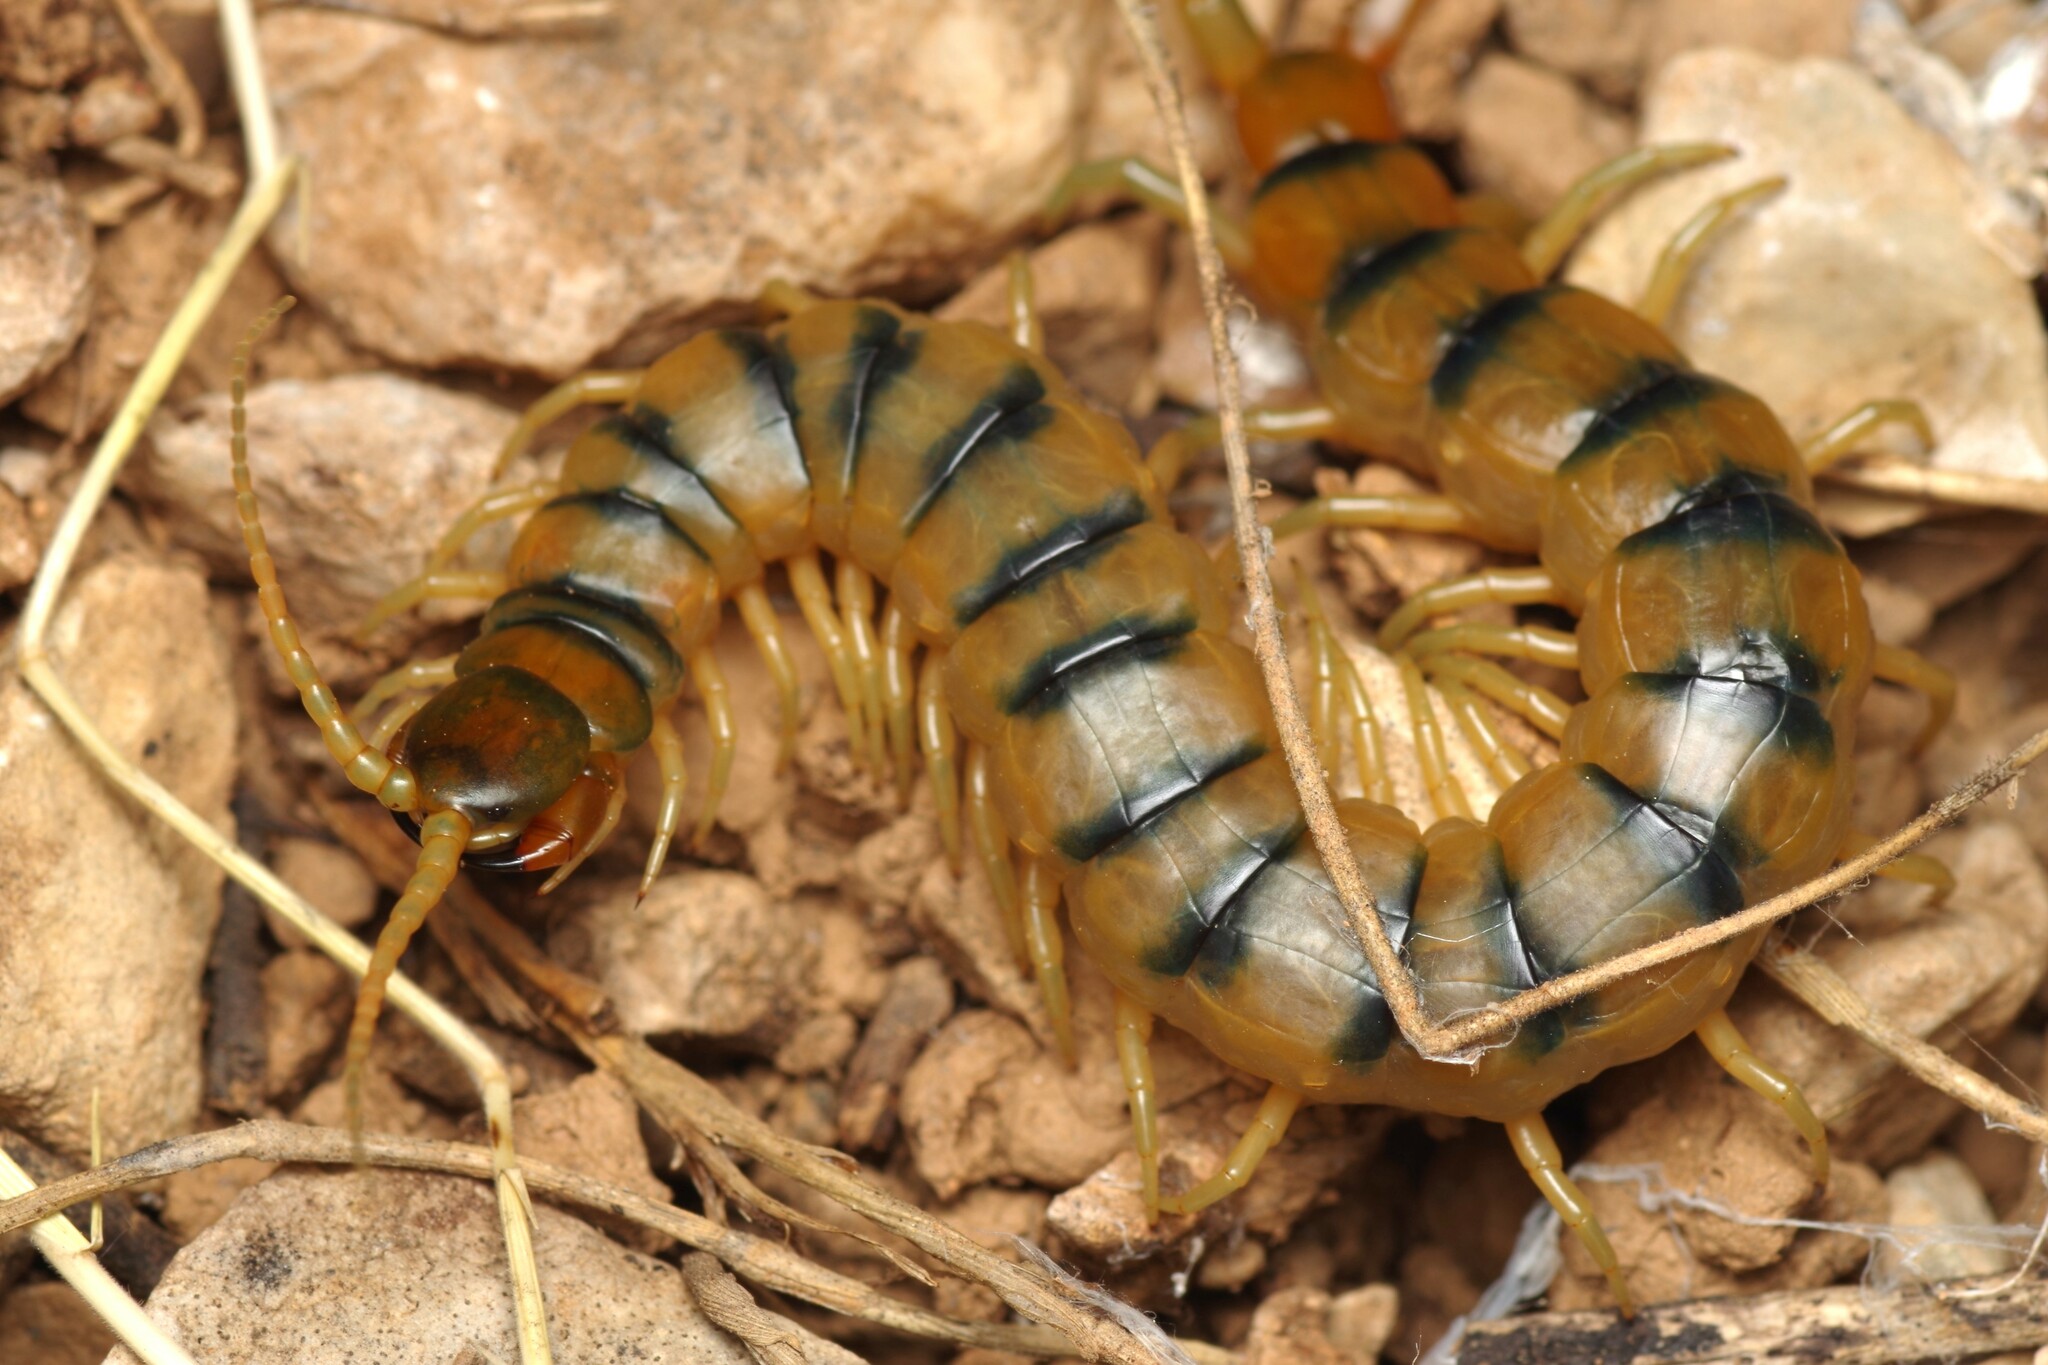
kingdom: Animalia
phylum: Arthropoda
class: Chilopoda
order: Scolopendromorpha
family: Scolopendridae
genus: Scolopendra
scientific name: Scolopendra cingulata
